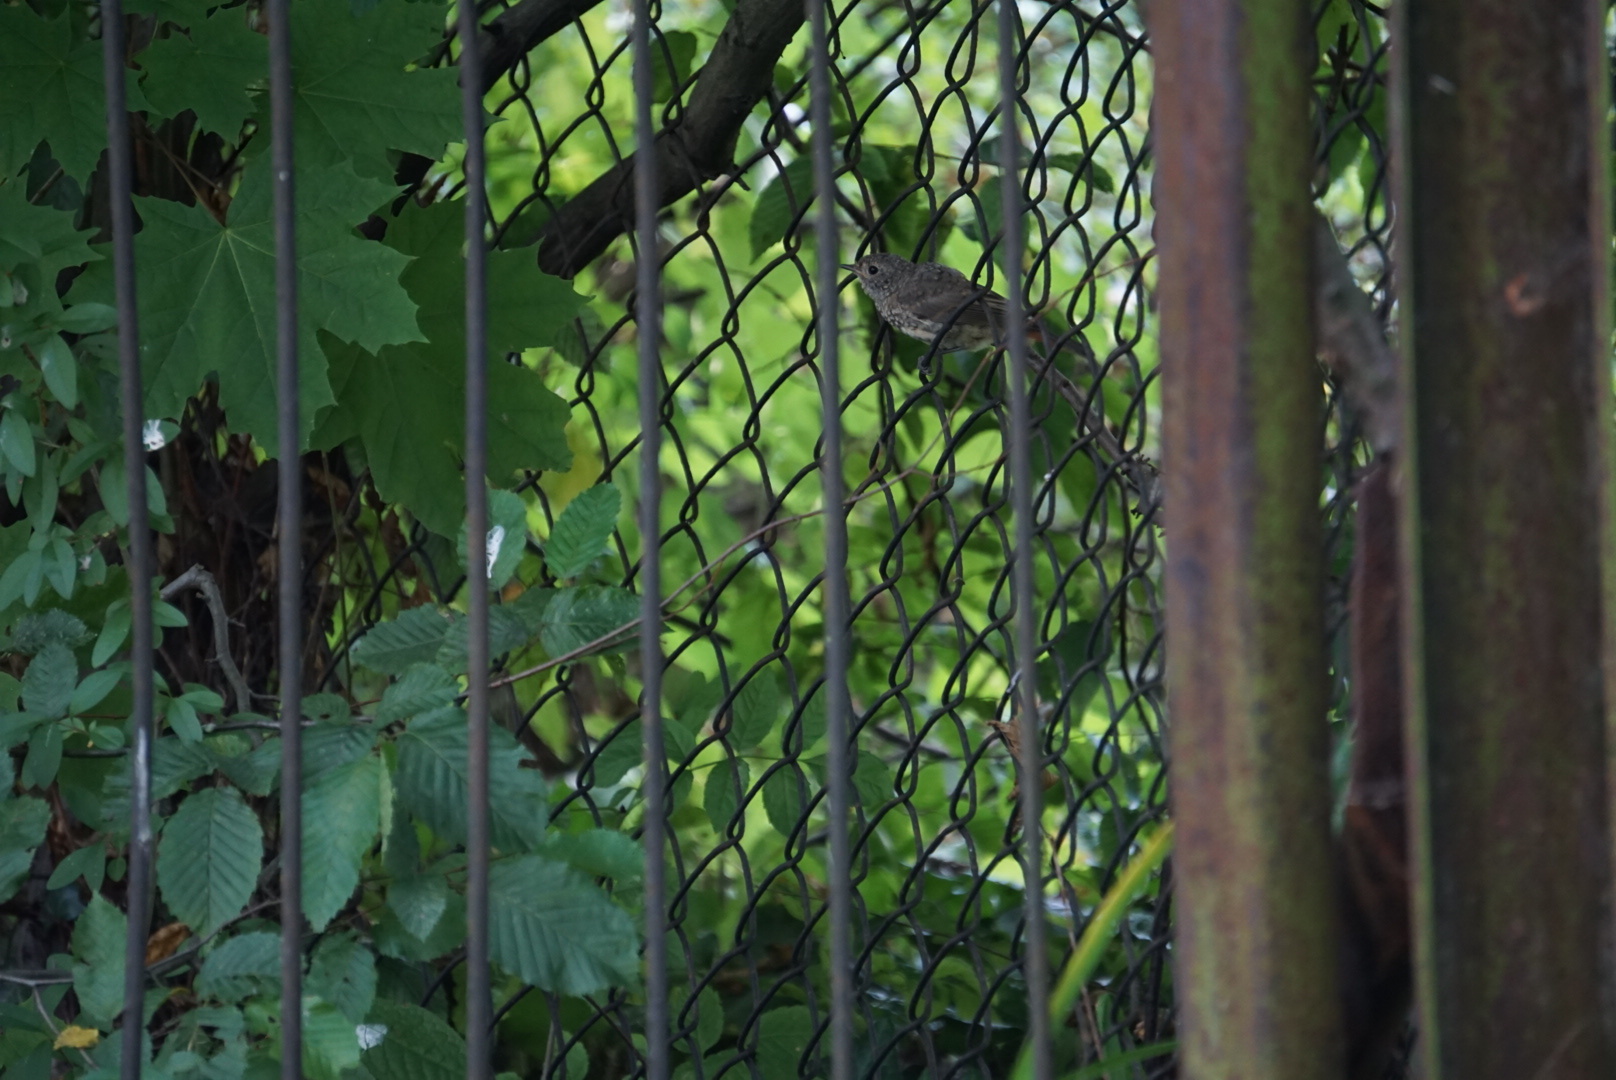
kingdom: Animalia
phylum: Chordata
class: Aves
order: Passeriformes
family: Muscicapidae
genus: Phoenicurus
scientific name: Phoenicurus phoenicurus
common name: Common redstart
